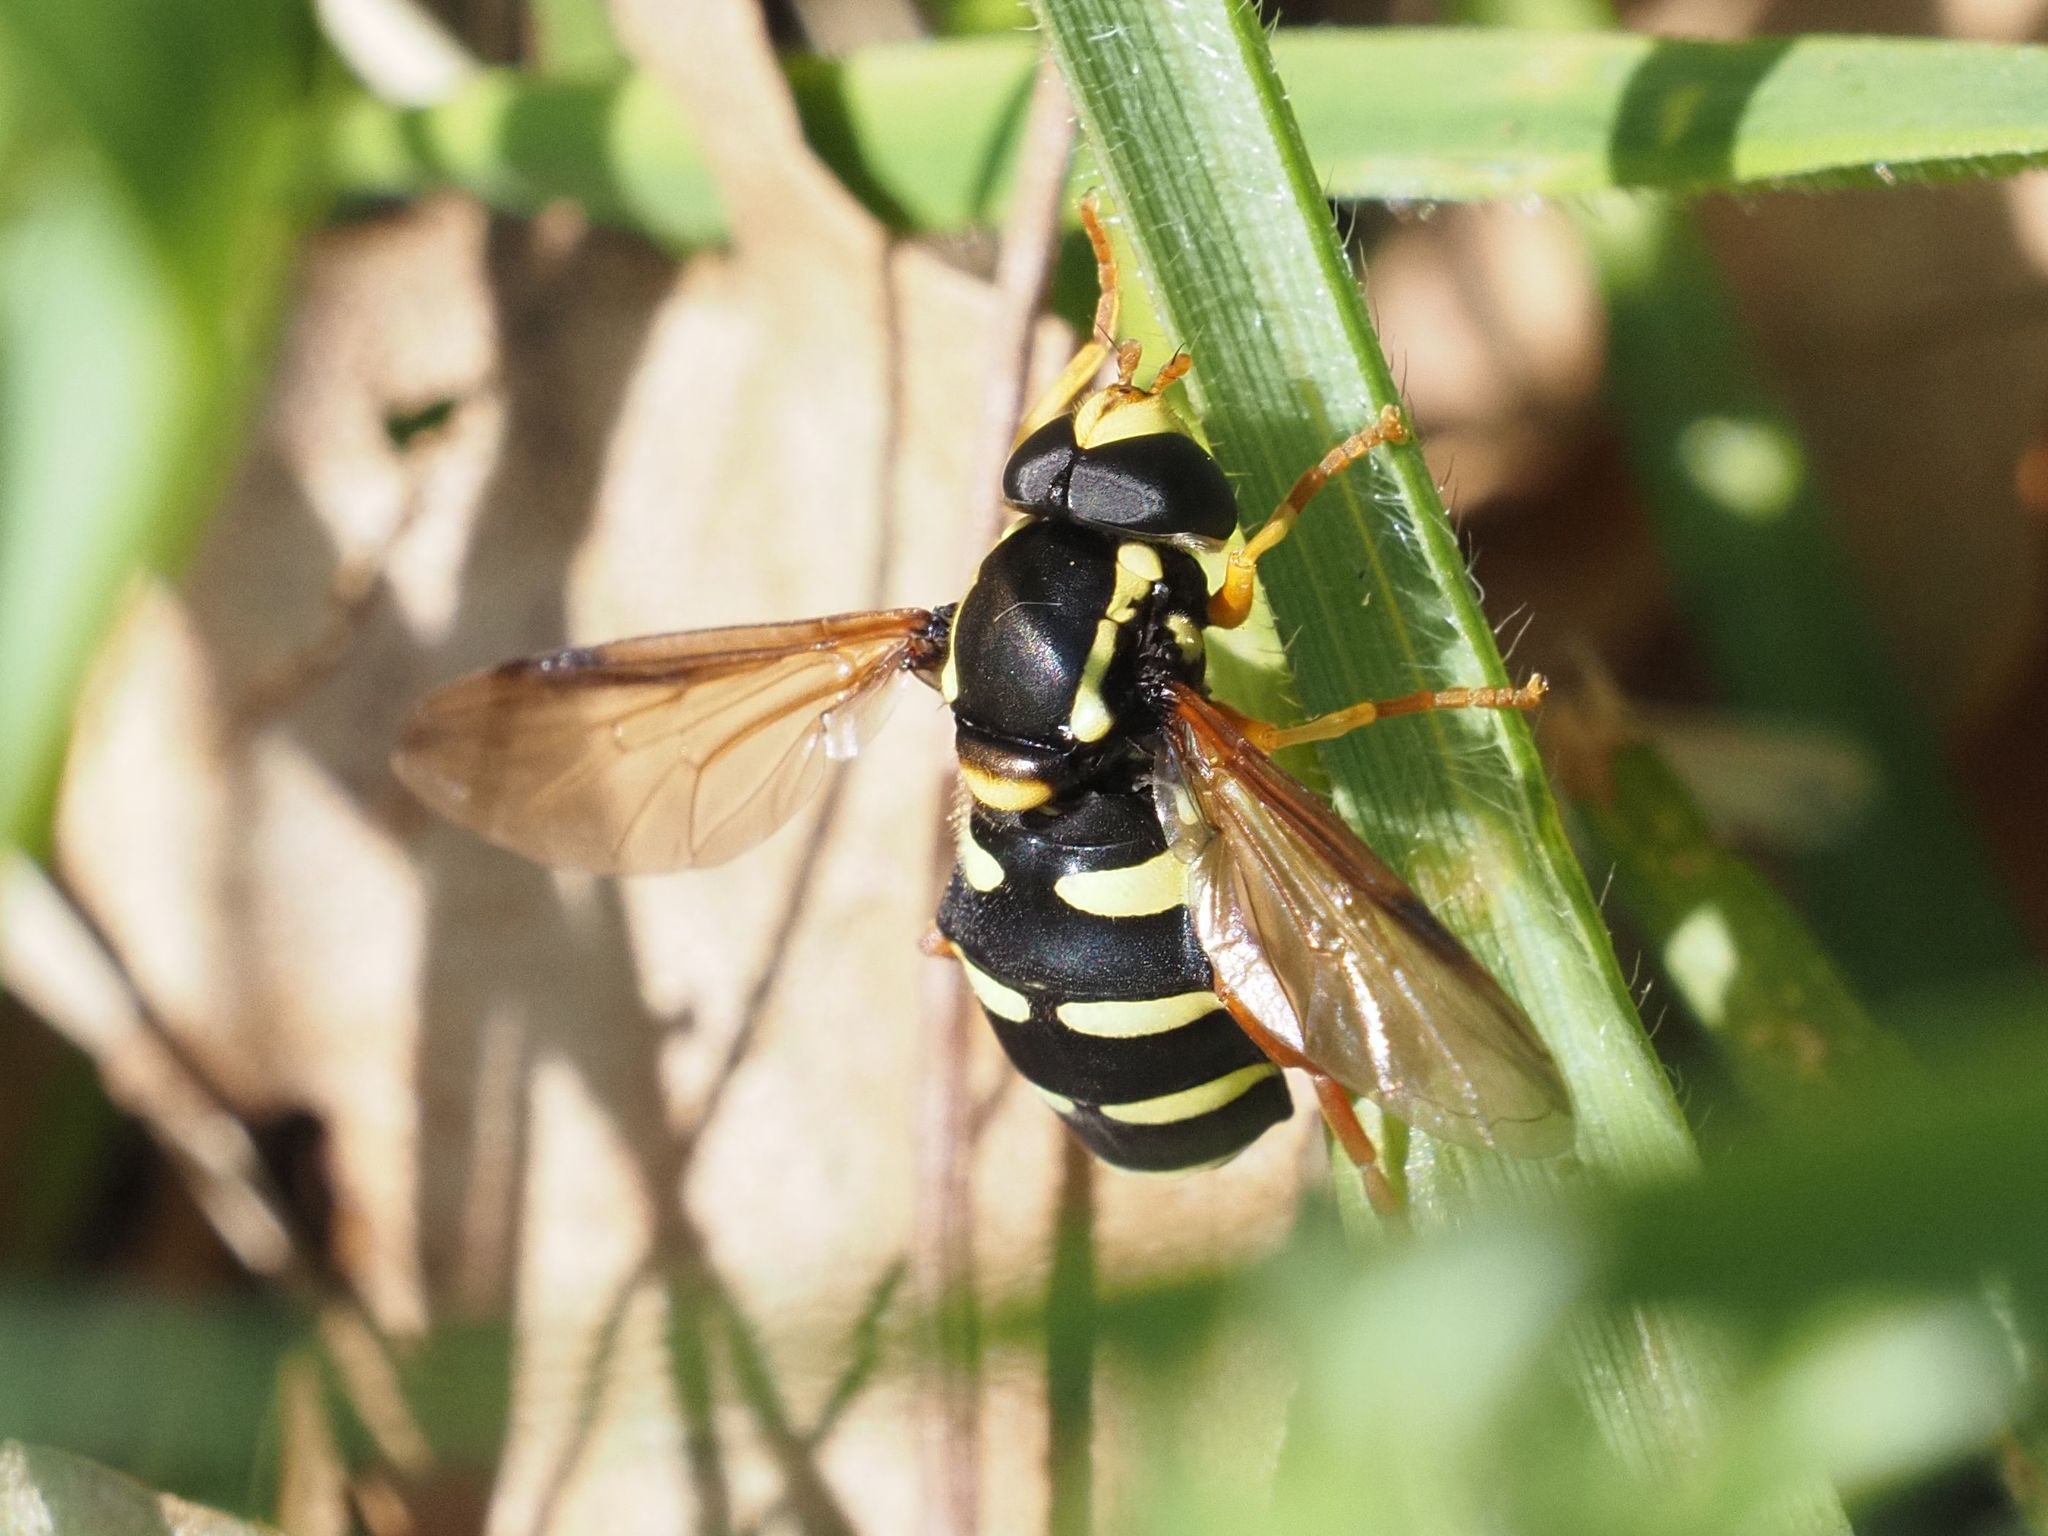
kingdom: Animalia
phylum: Arthropoda
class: Insecta
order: Diptera
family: Syrphidae
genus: Philhelius
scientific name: Philhelius citrofasciata
